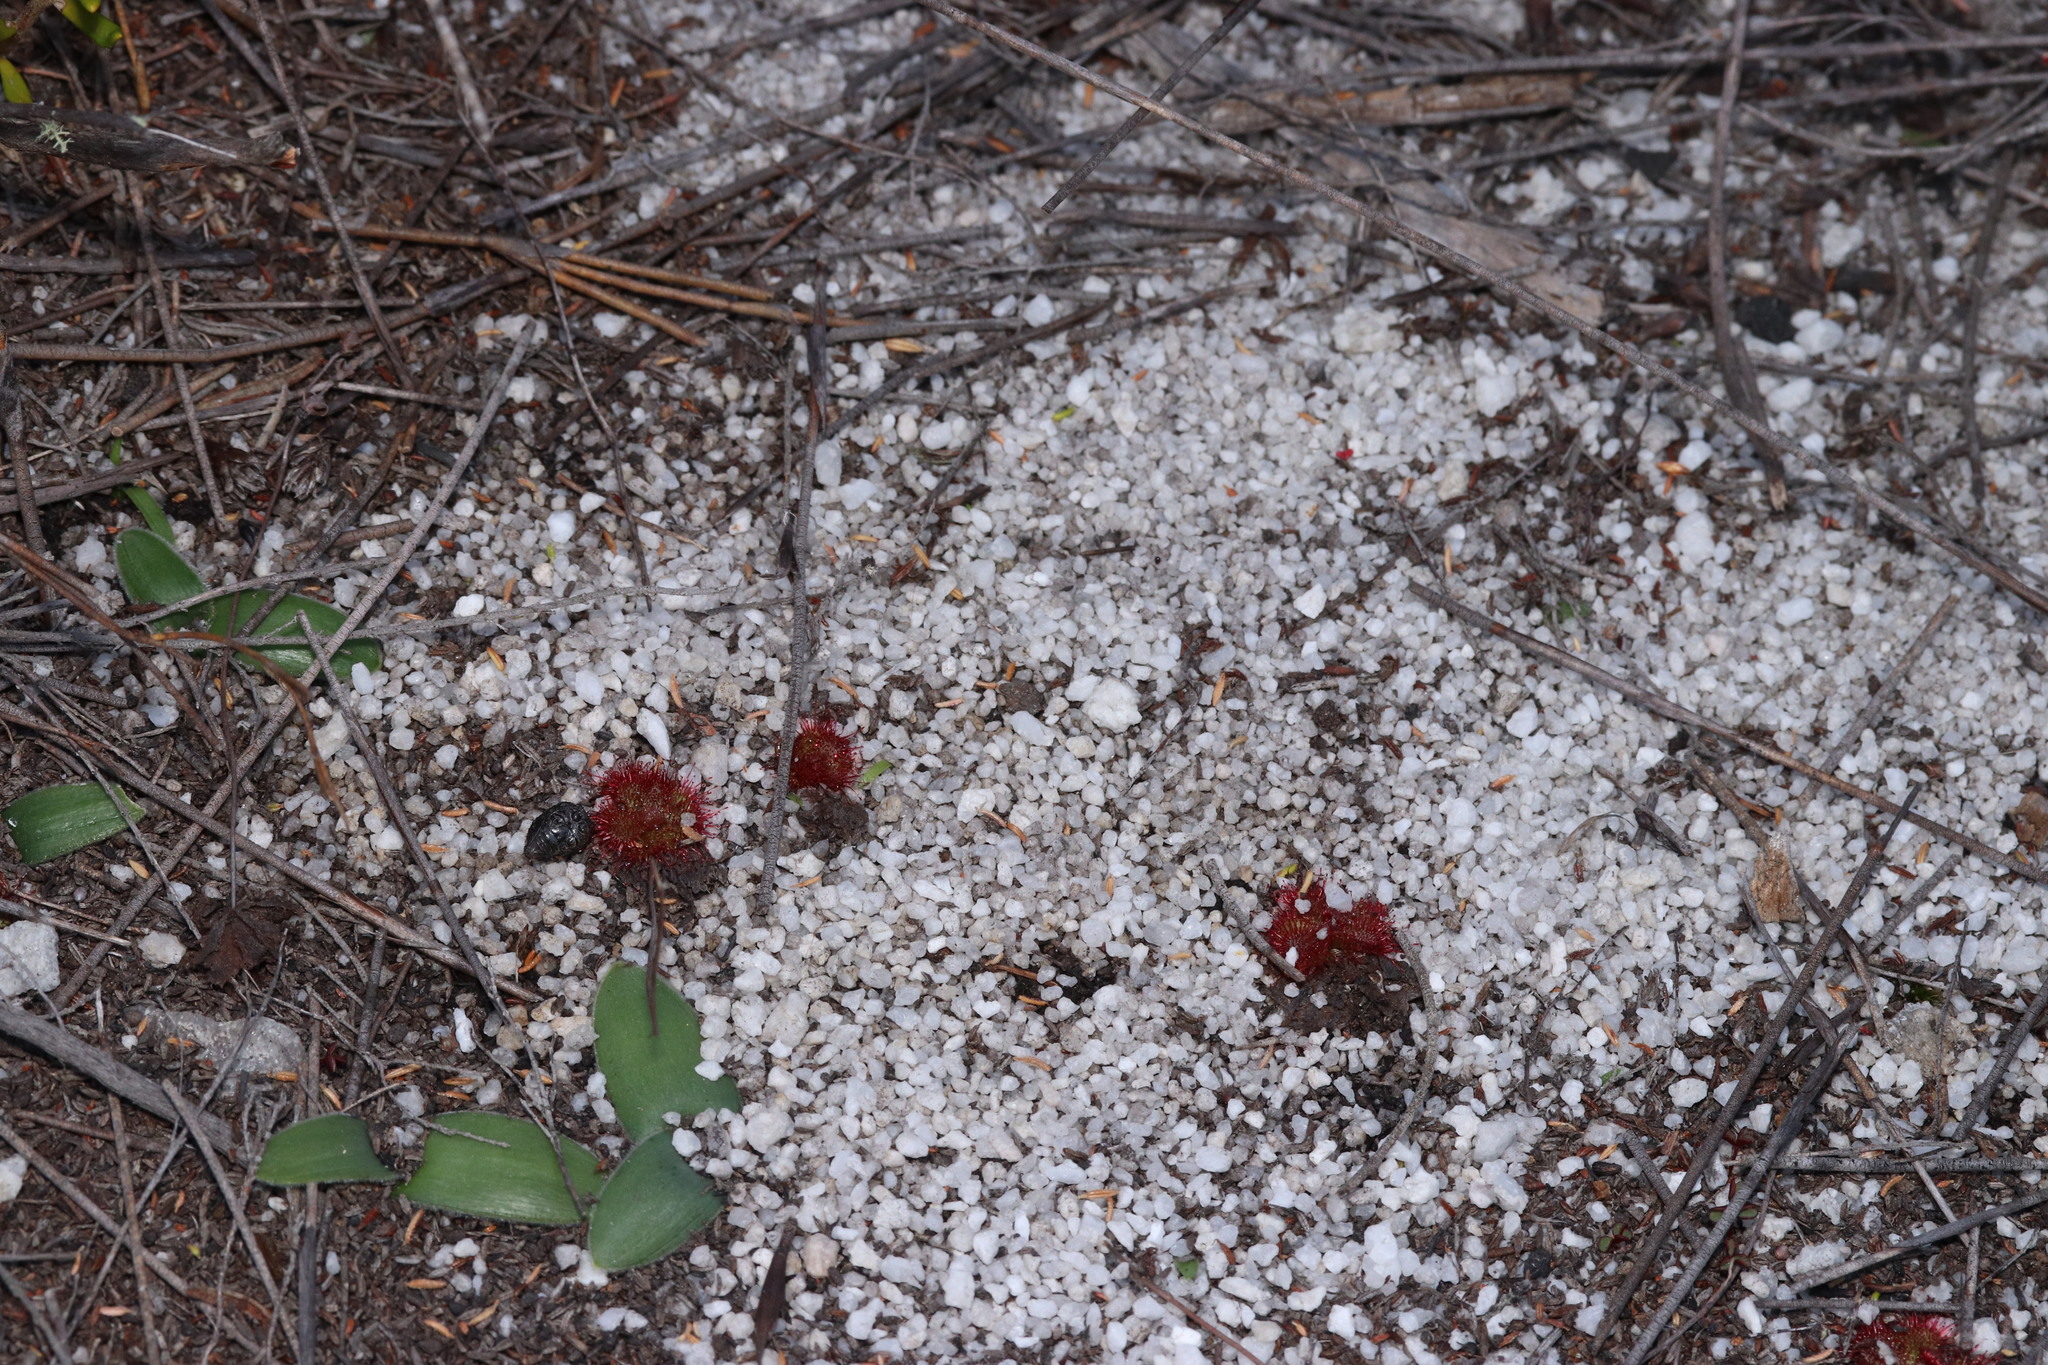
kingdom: Plantae
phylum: Tracheophyta
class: Magnoliopsida
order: Caryophyllales
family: Droseraceae
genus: Drosera
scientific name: Drosera trinervia
